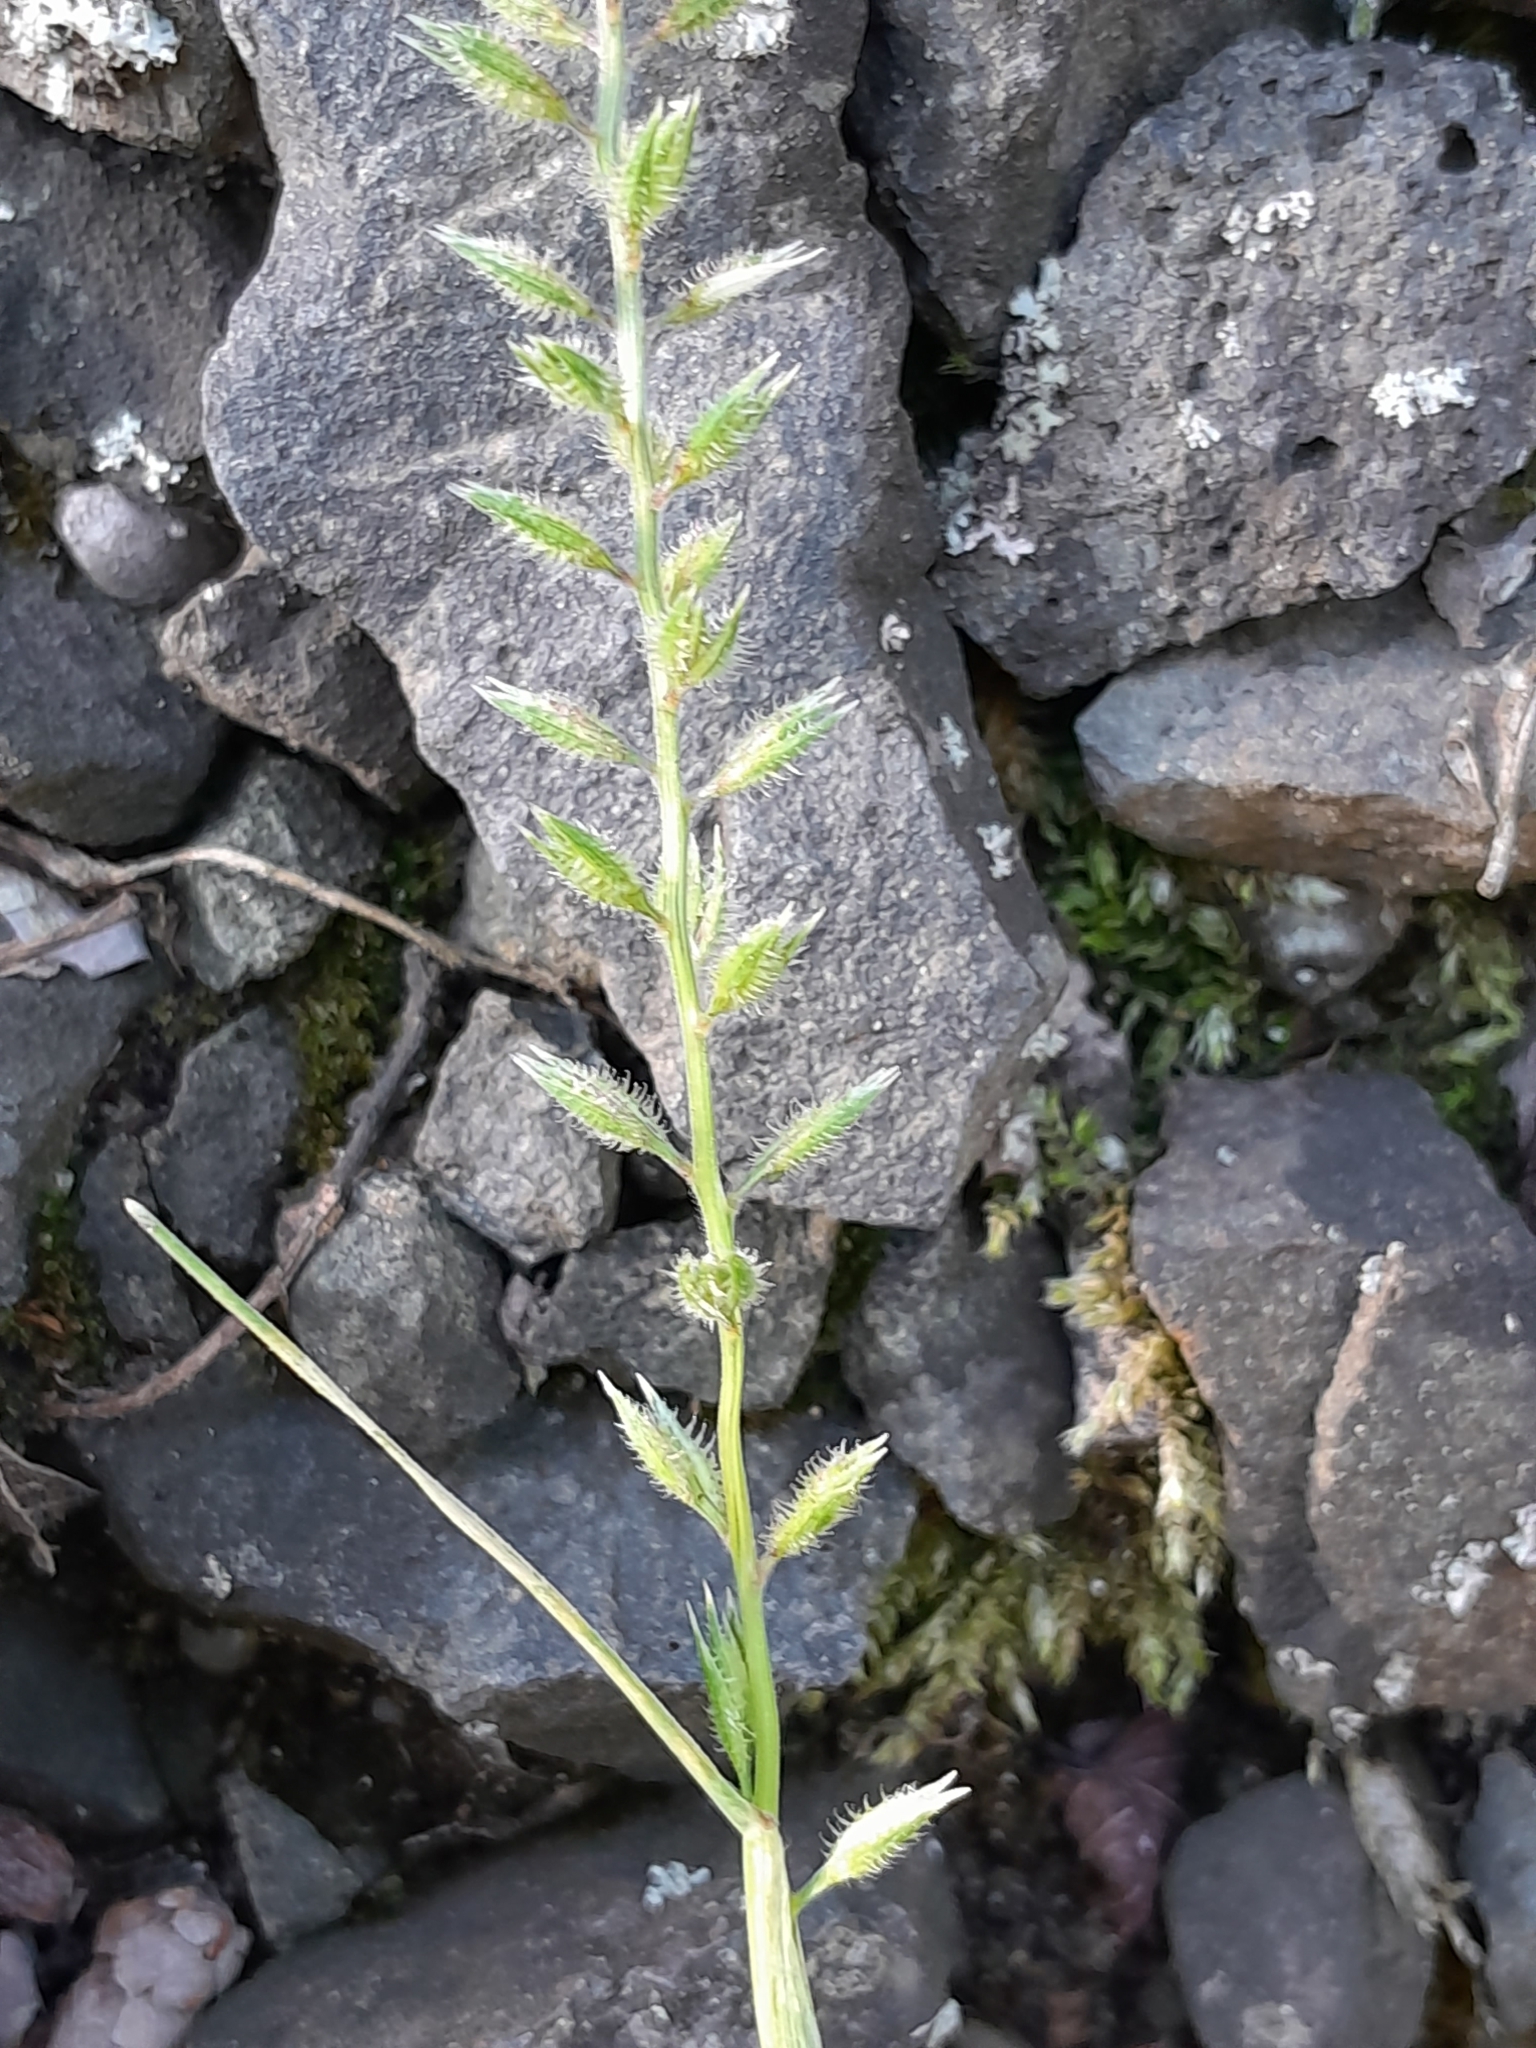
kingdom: Plantae
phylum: Tracheophyta
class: Liliopsida
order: Poales
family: Poaceae
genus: Tragus
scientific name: Tragus racemosus
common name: European bur-grass
